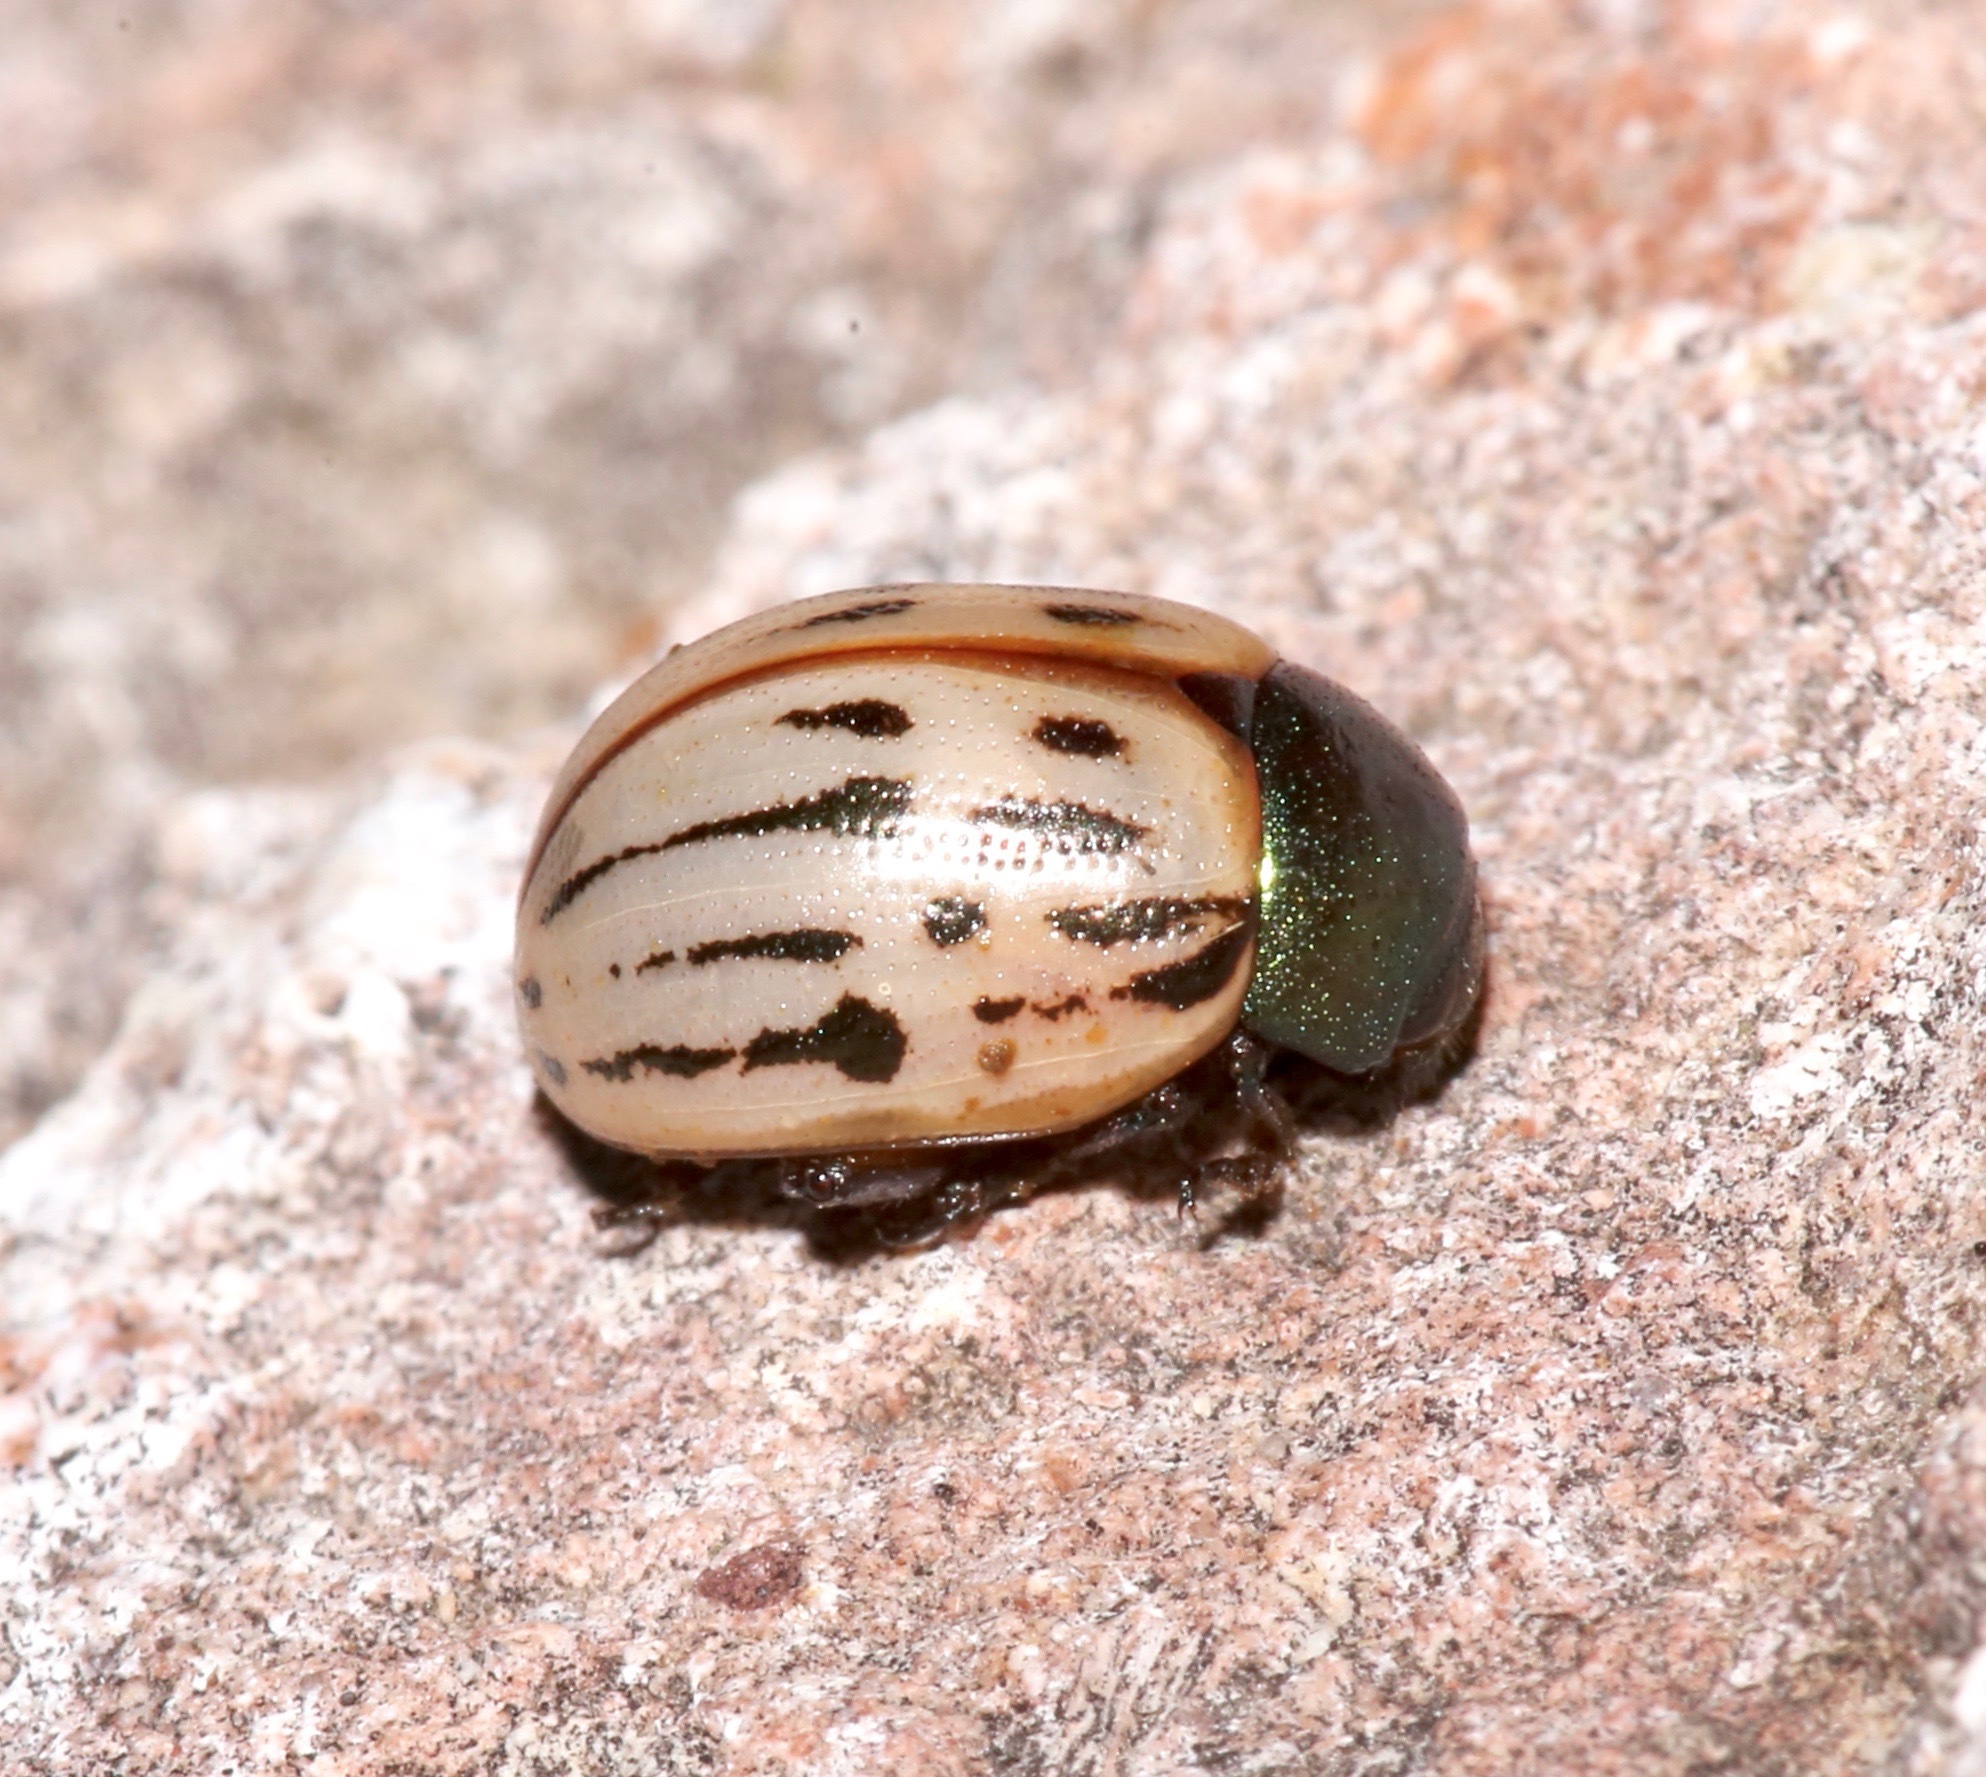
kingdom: Animalia
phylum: Arthropoda
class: Insecta
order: Coleoptera
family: Chrysomelidae
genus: Leptinotarsa
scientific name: Leptinotarsa lineolata
